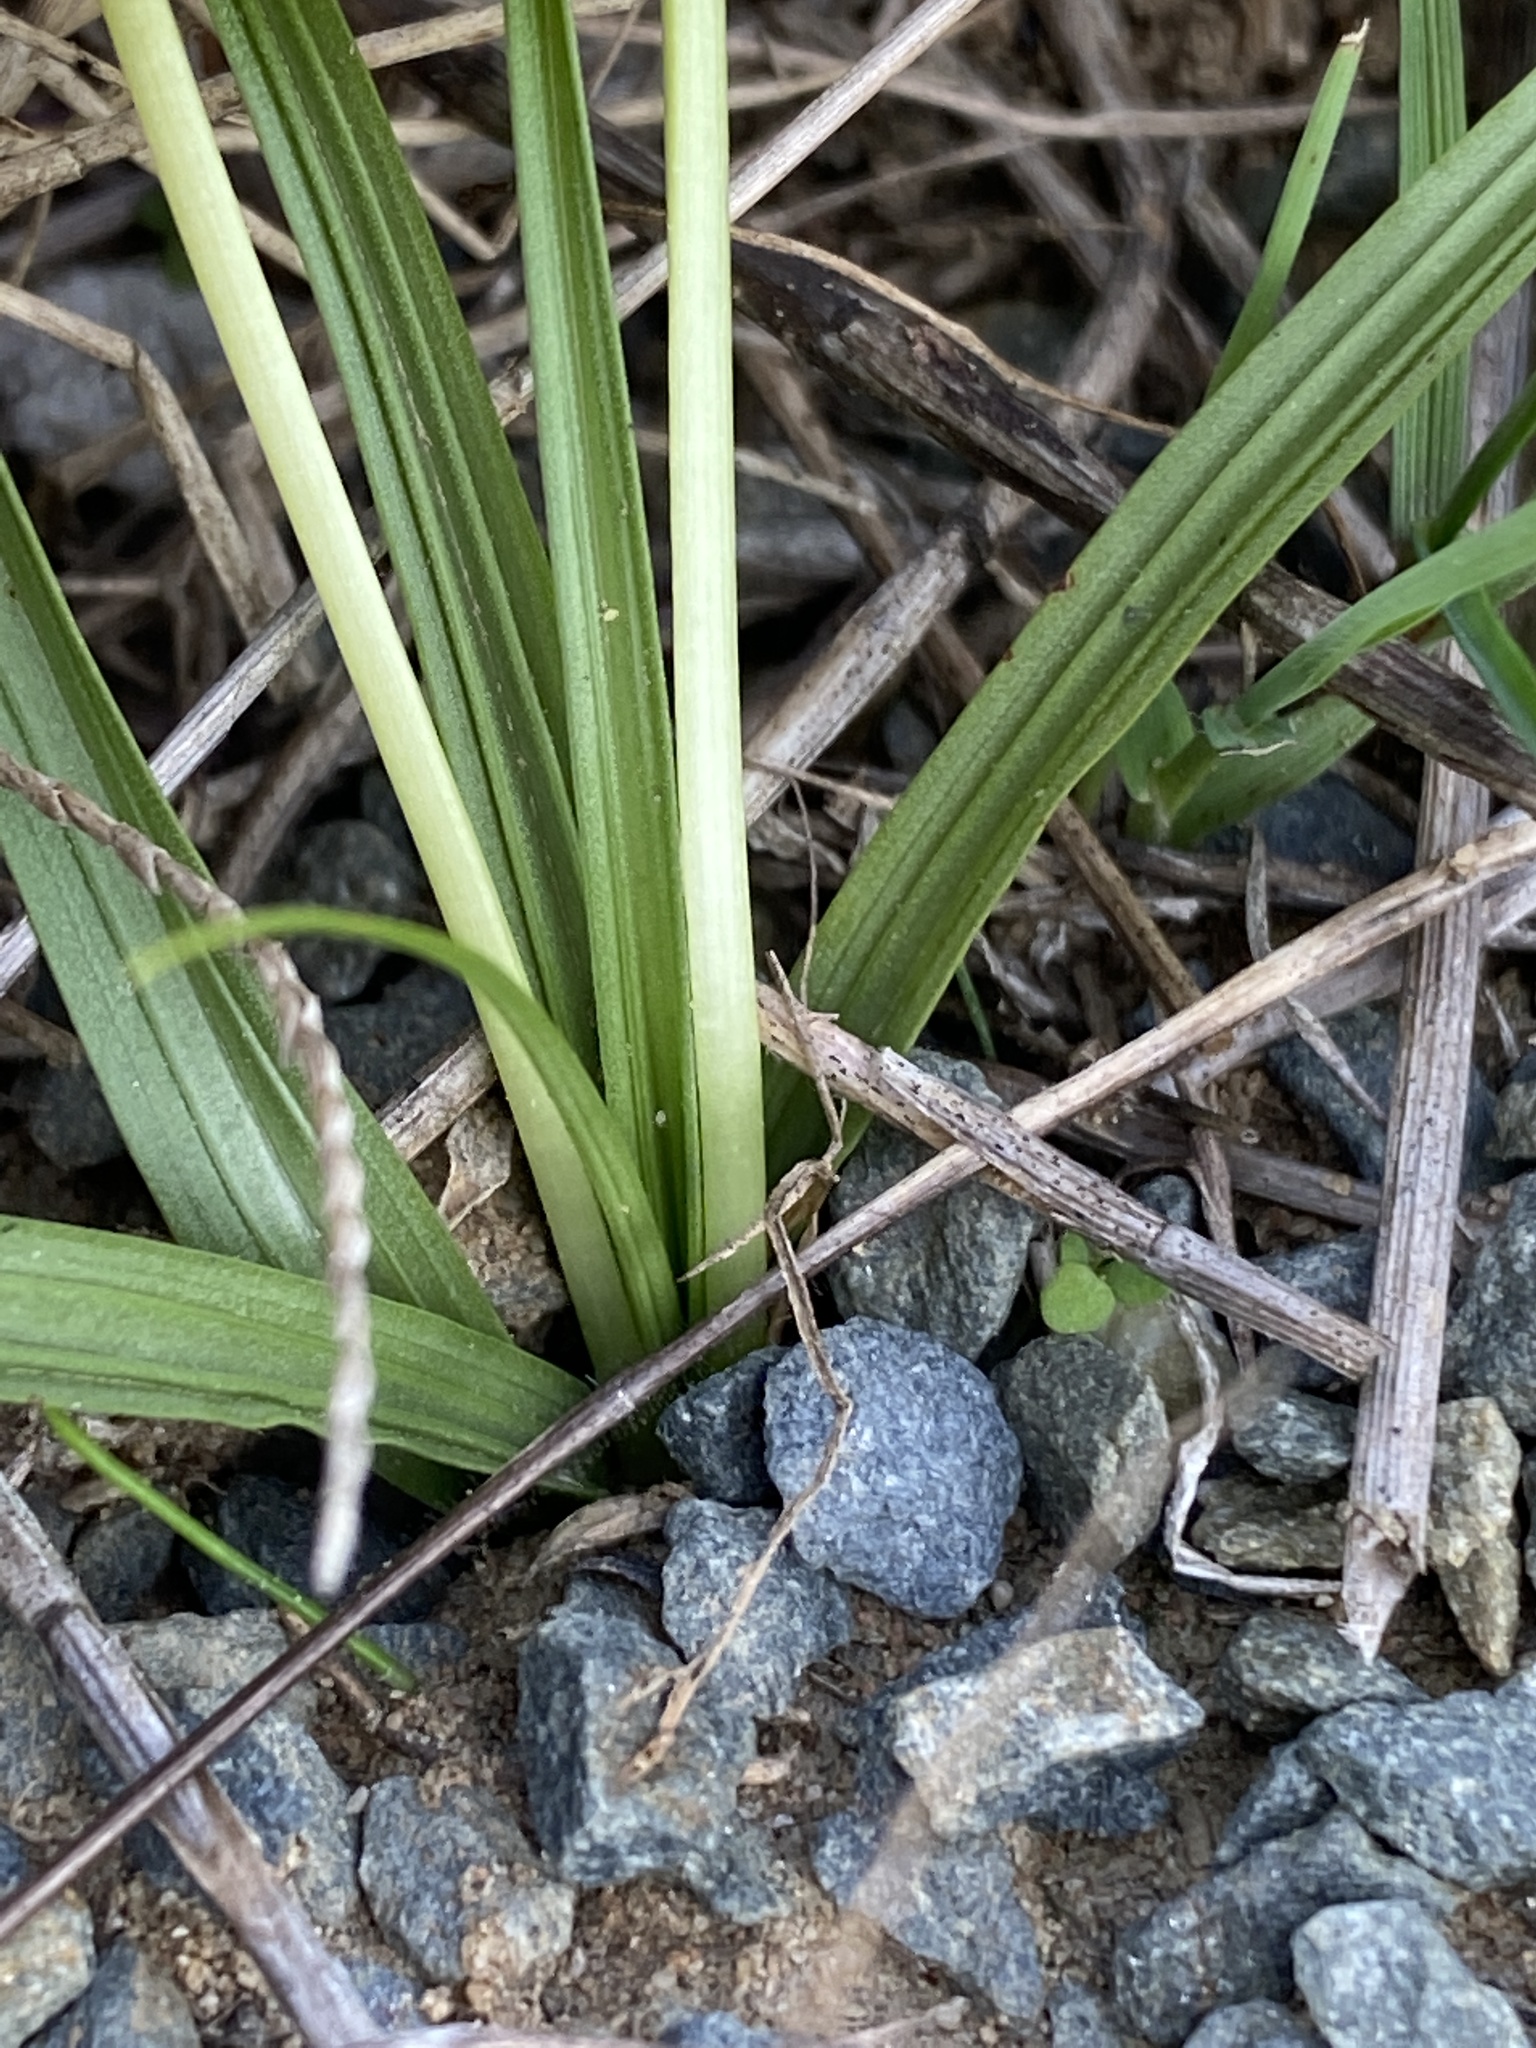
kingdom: Plantae
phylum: Tracheophyta
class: Liliopsida
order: Asparagales
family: Hypoxidaceae
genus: Empodium
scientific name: Empodium plicatum
